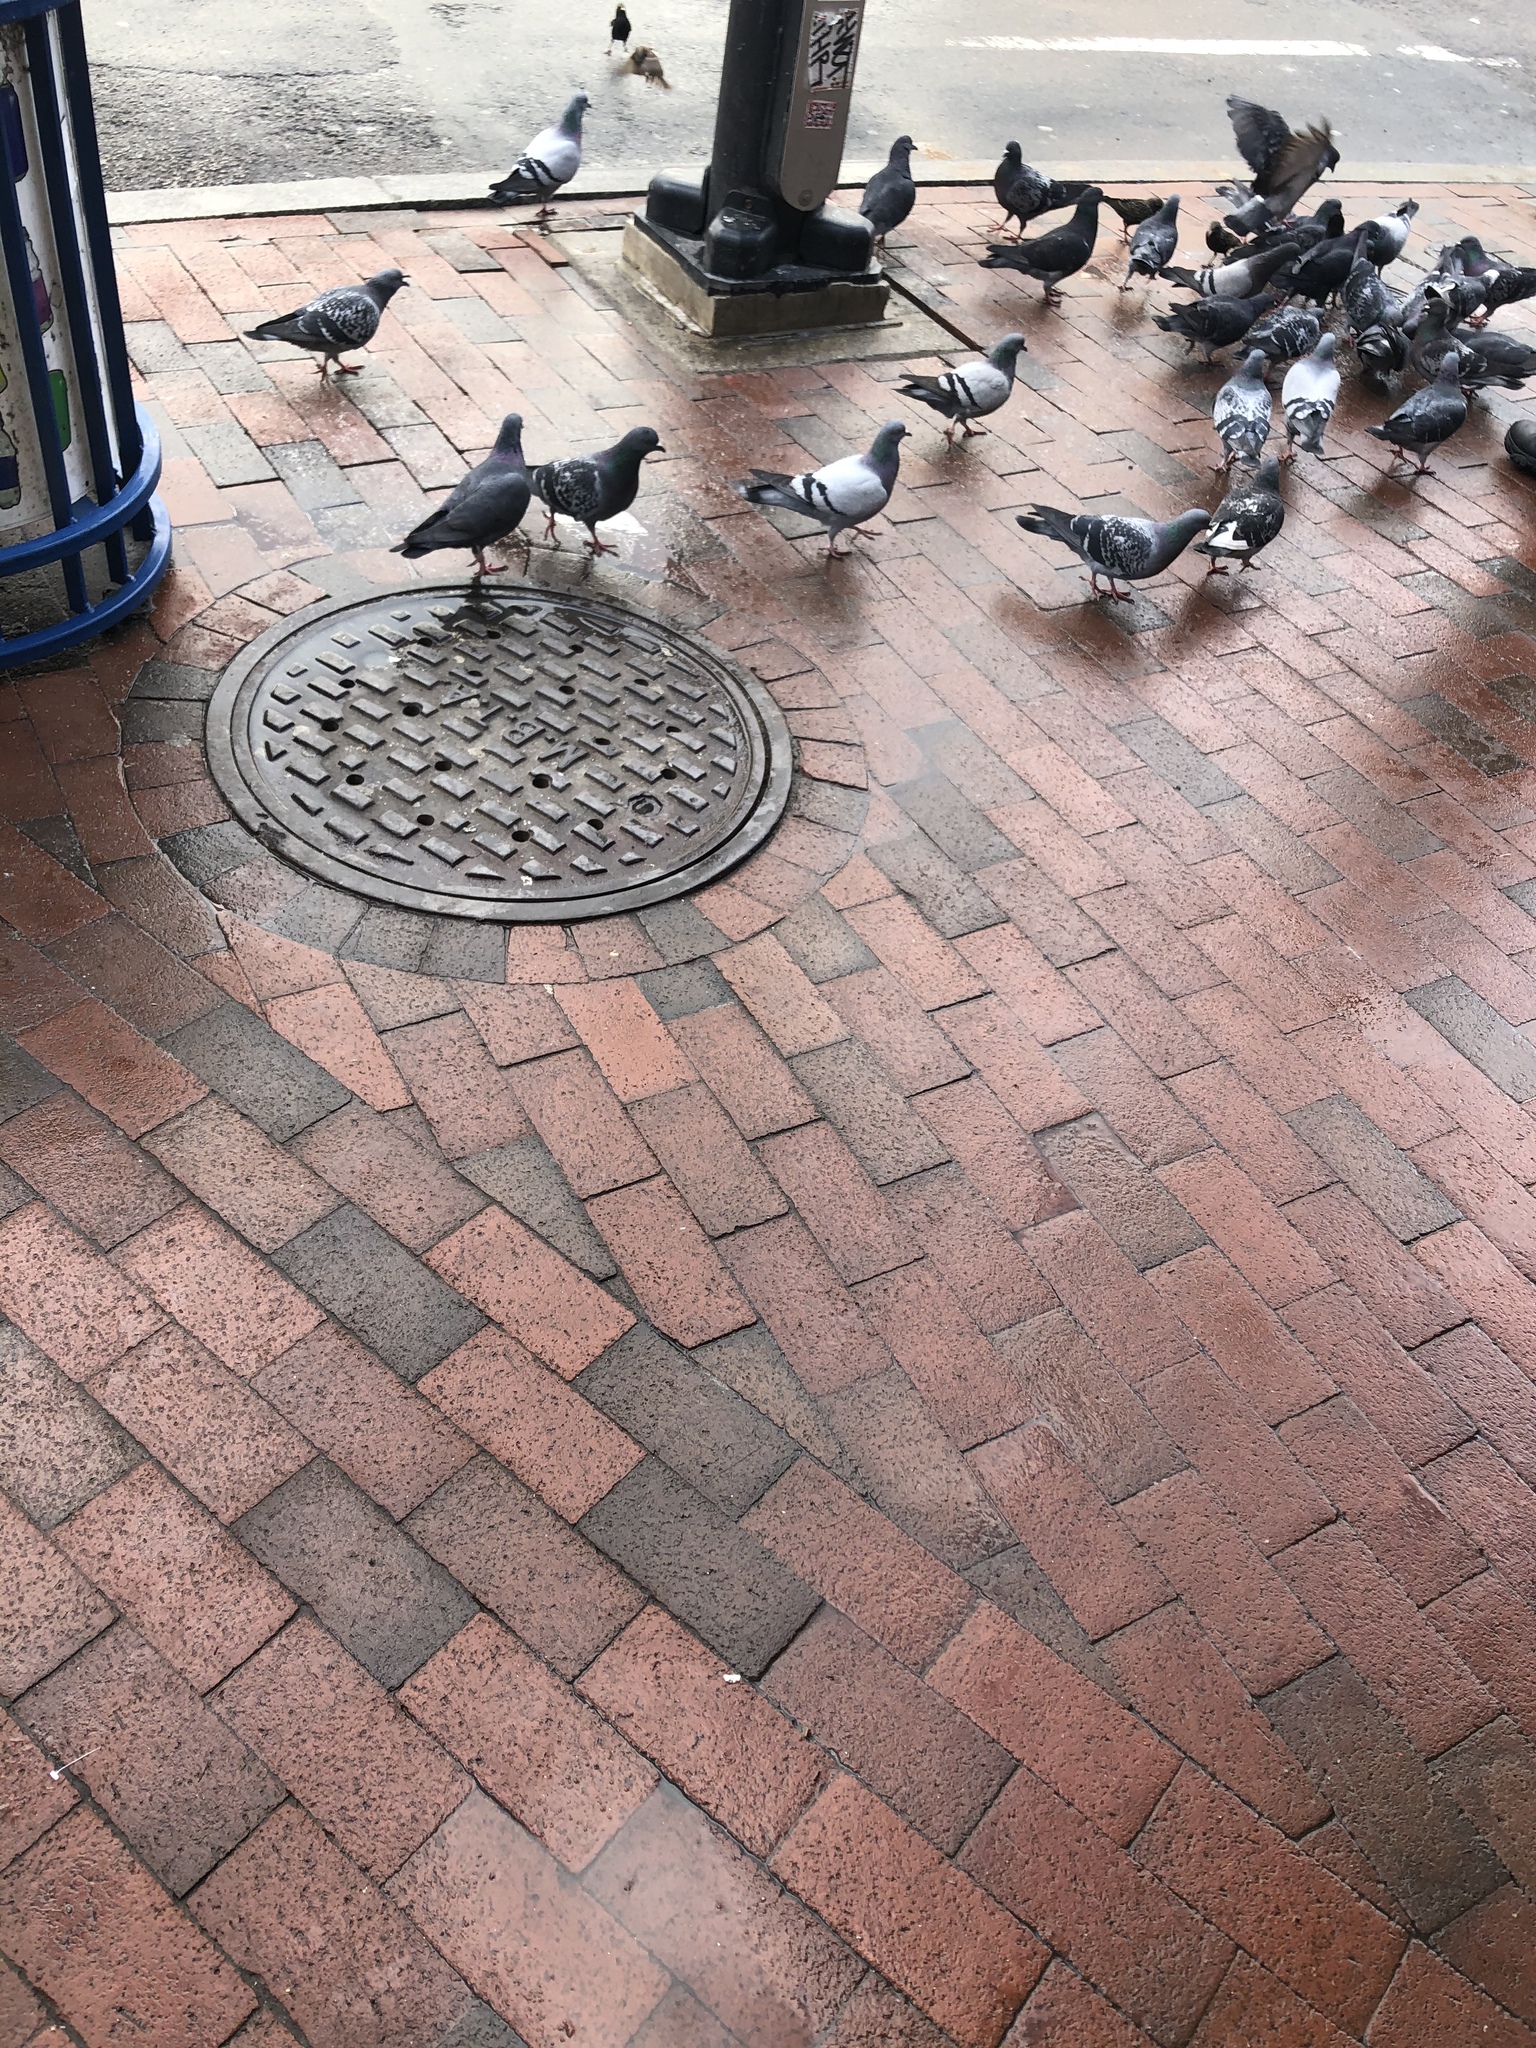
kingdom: Animalia
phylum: Chordata
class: Aves
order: Columbiformes
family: Columbidae
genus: Columba
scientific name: Columba livia
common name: Rock pigeon
